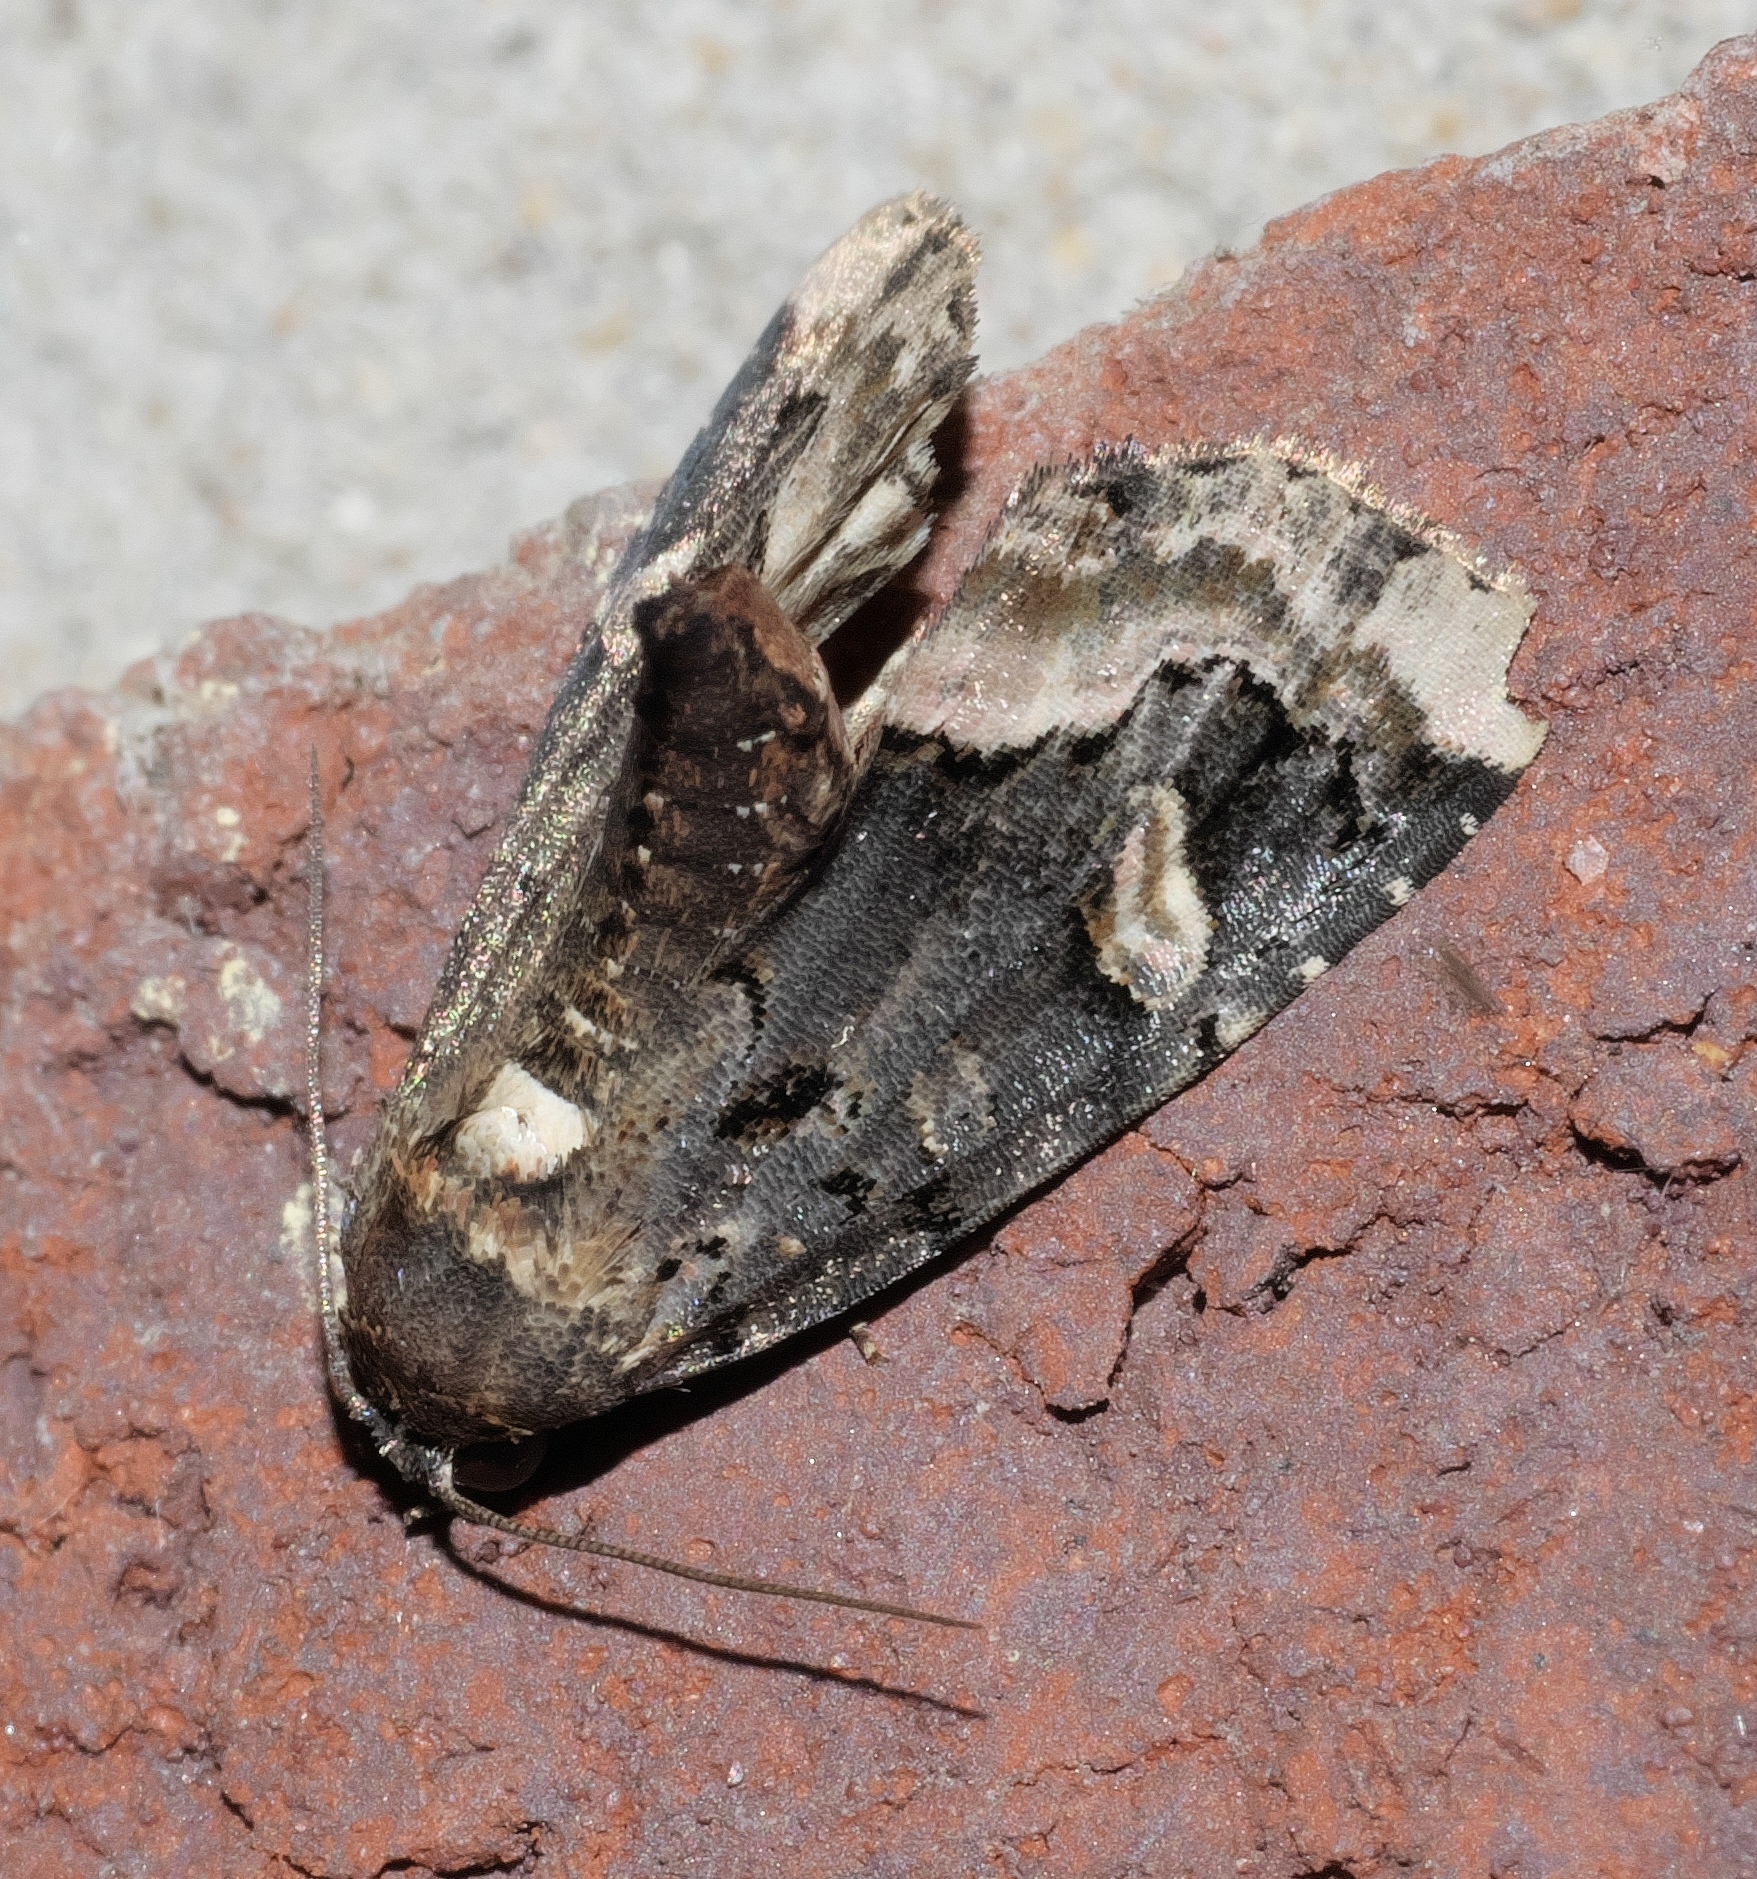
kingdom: Animalia
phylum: Arthropoda
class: Insecta
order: Lepidoptera
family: Noctuidae
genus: Homophoberia
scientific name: Homophoberia apicosa
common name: Black wedge-spot
